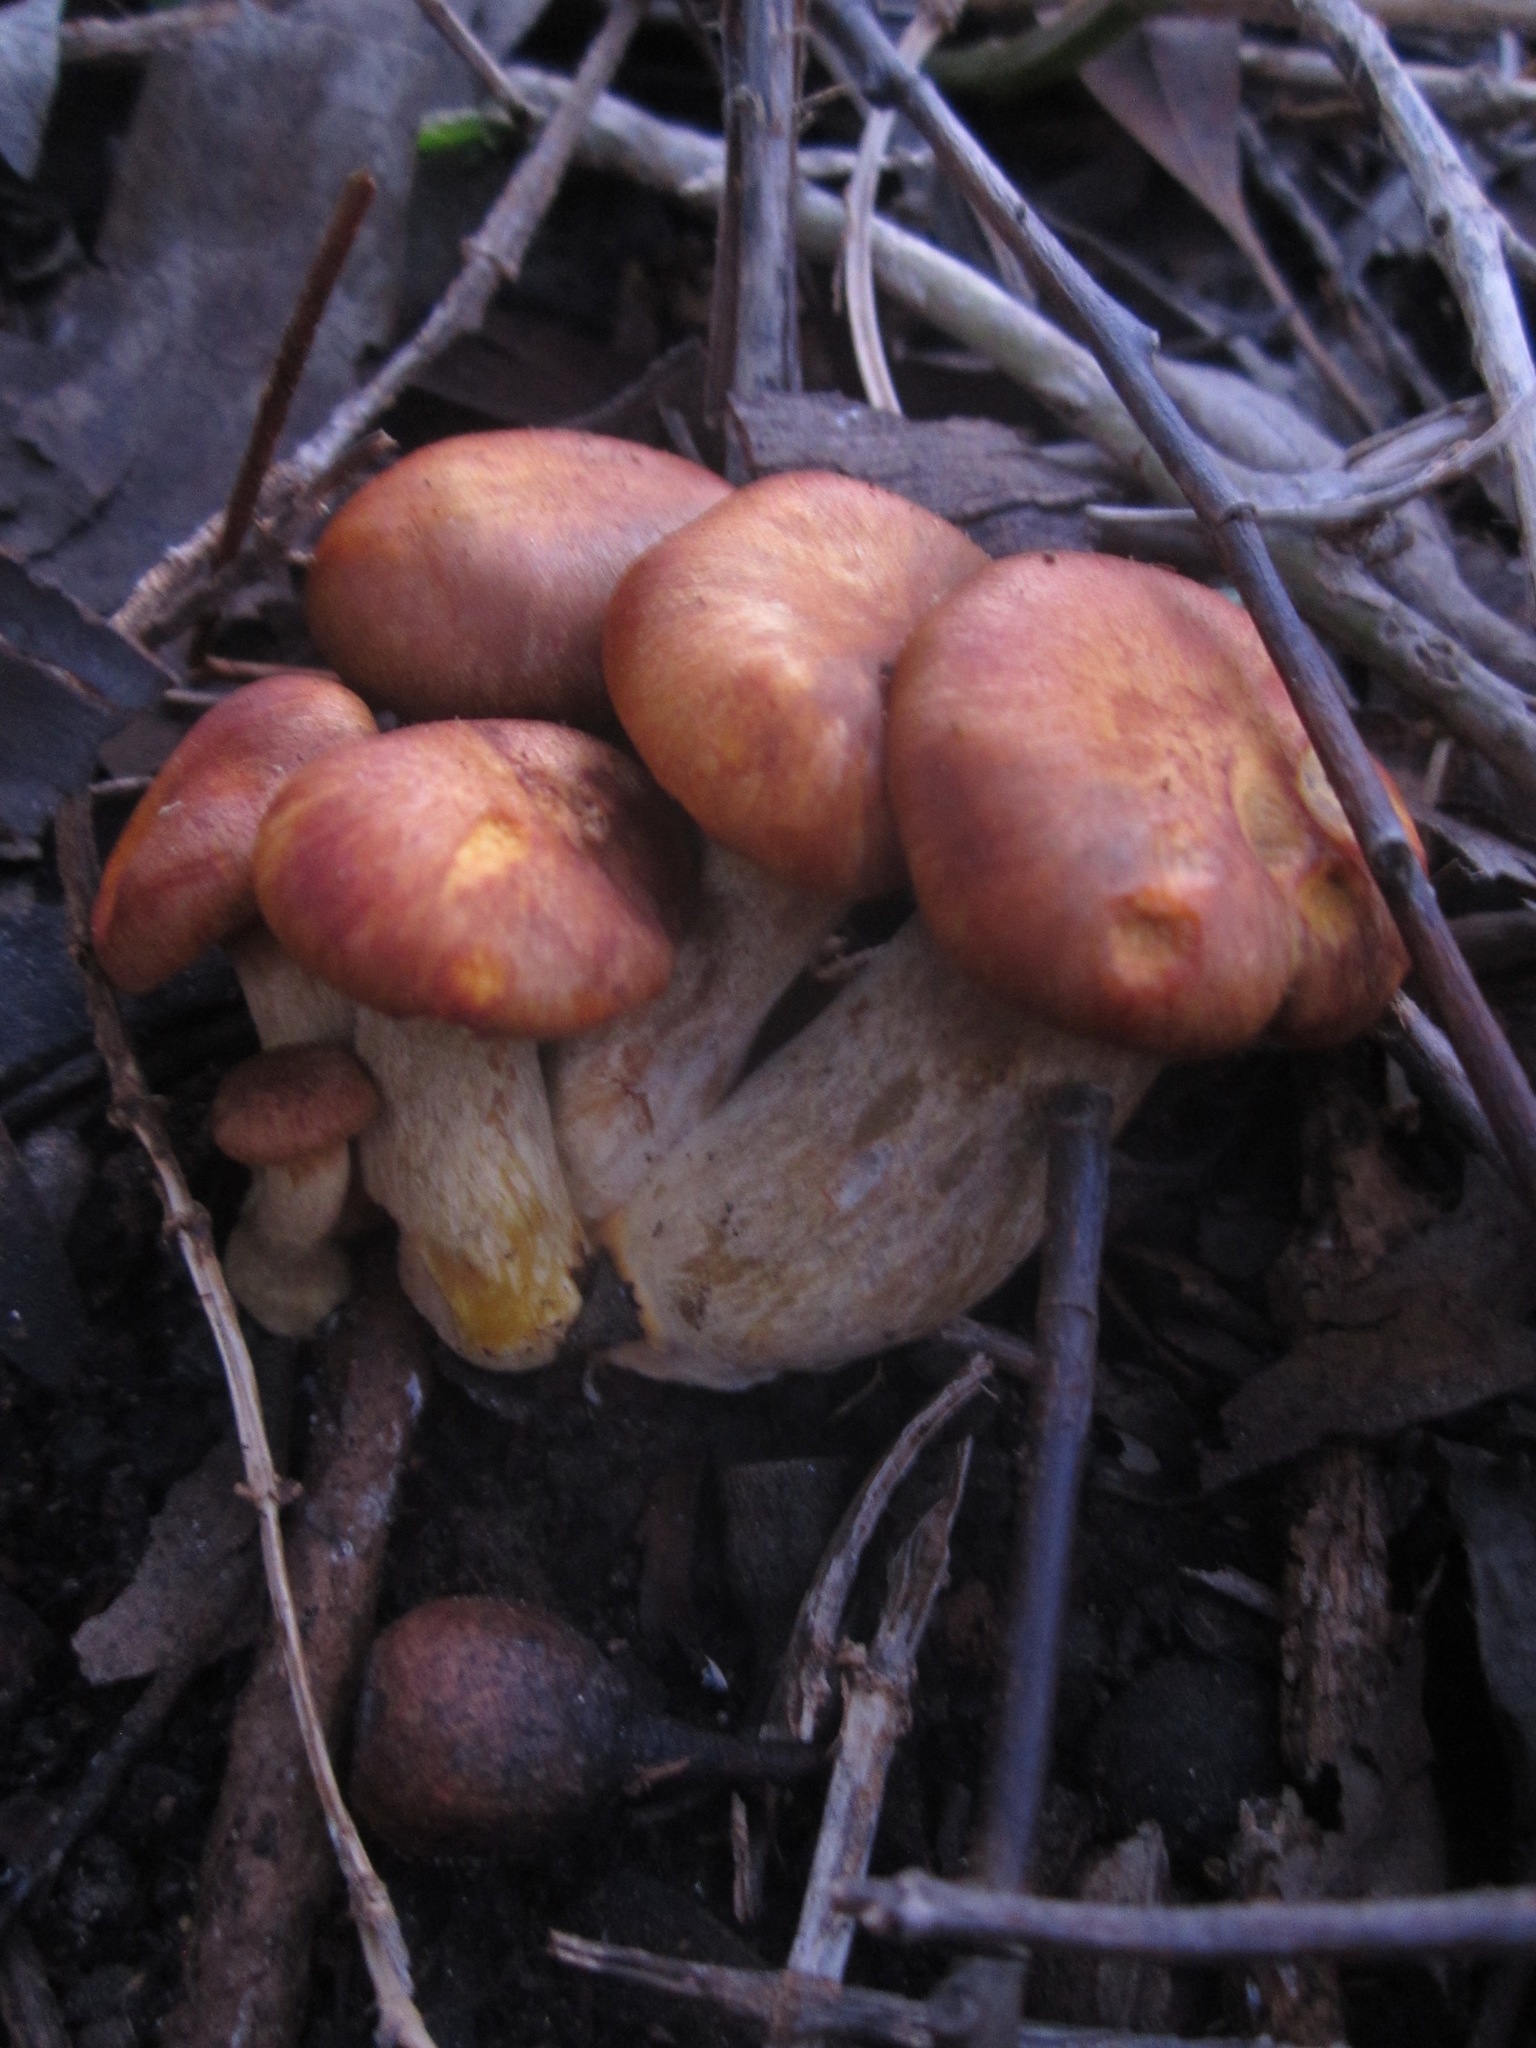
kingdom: Fungi
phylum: Basidiomycota
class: Agaricomycetes
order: Agaricales
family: Omphalotaceae
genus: Omphalotus
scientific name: Omphalotus olivascens
